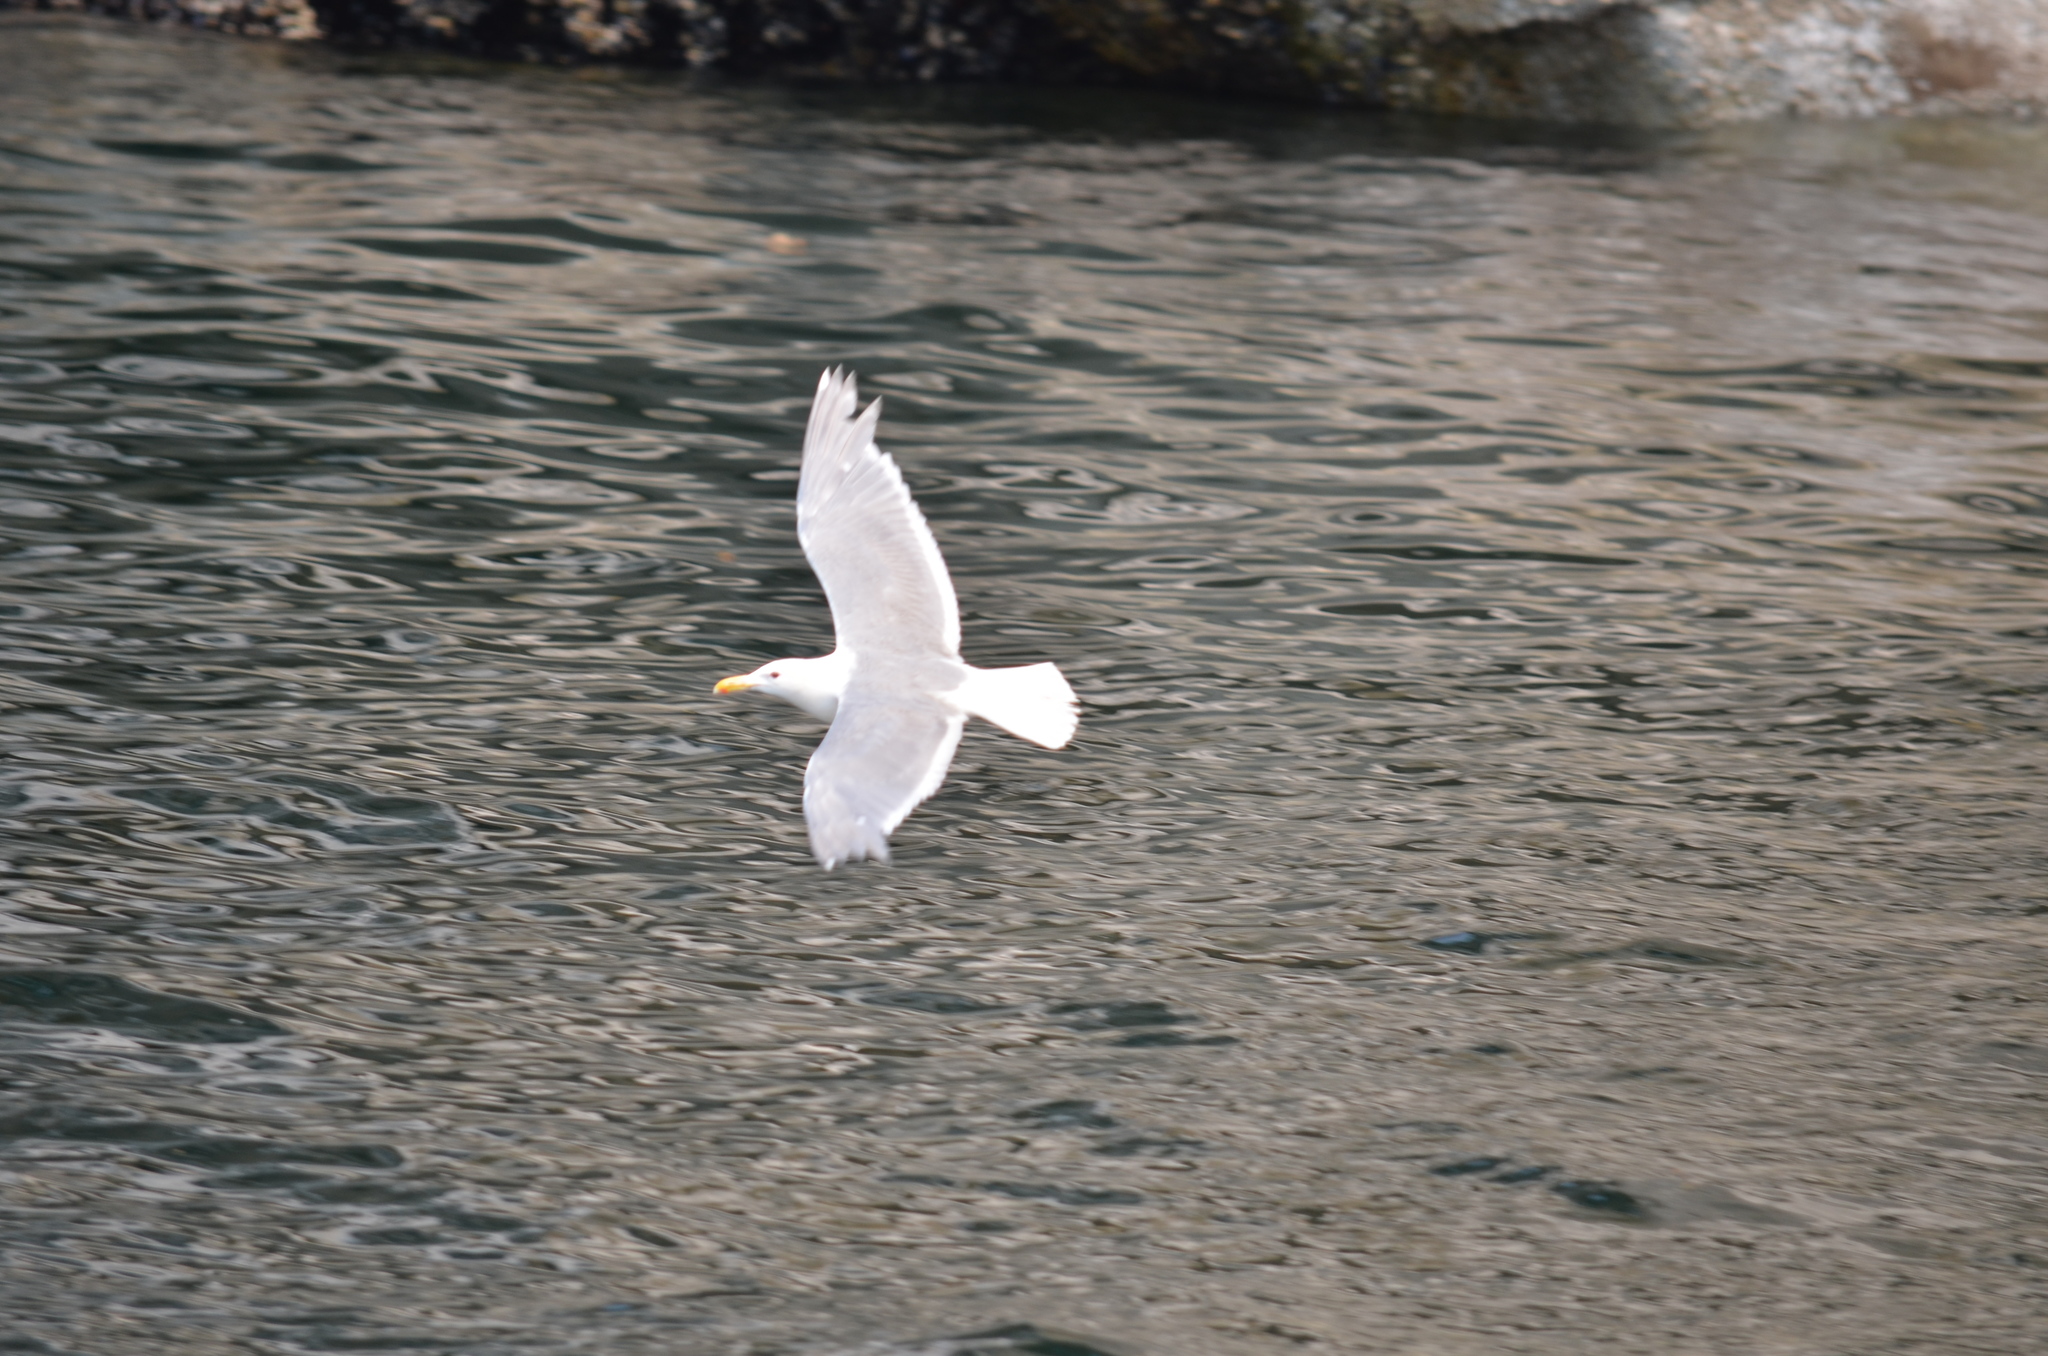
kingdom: Animalia
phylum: Chordata
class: Aves
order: Charadriiformes
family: Laridae
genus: Larus
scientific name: Larus glaucescens
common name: Glaucous-winged gull
